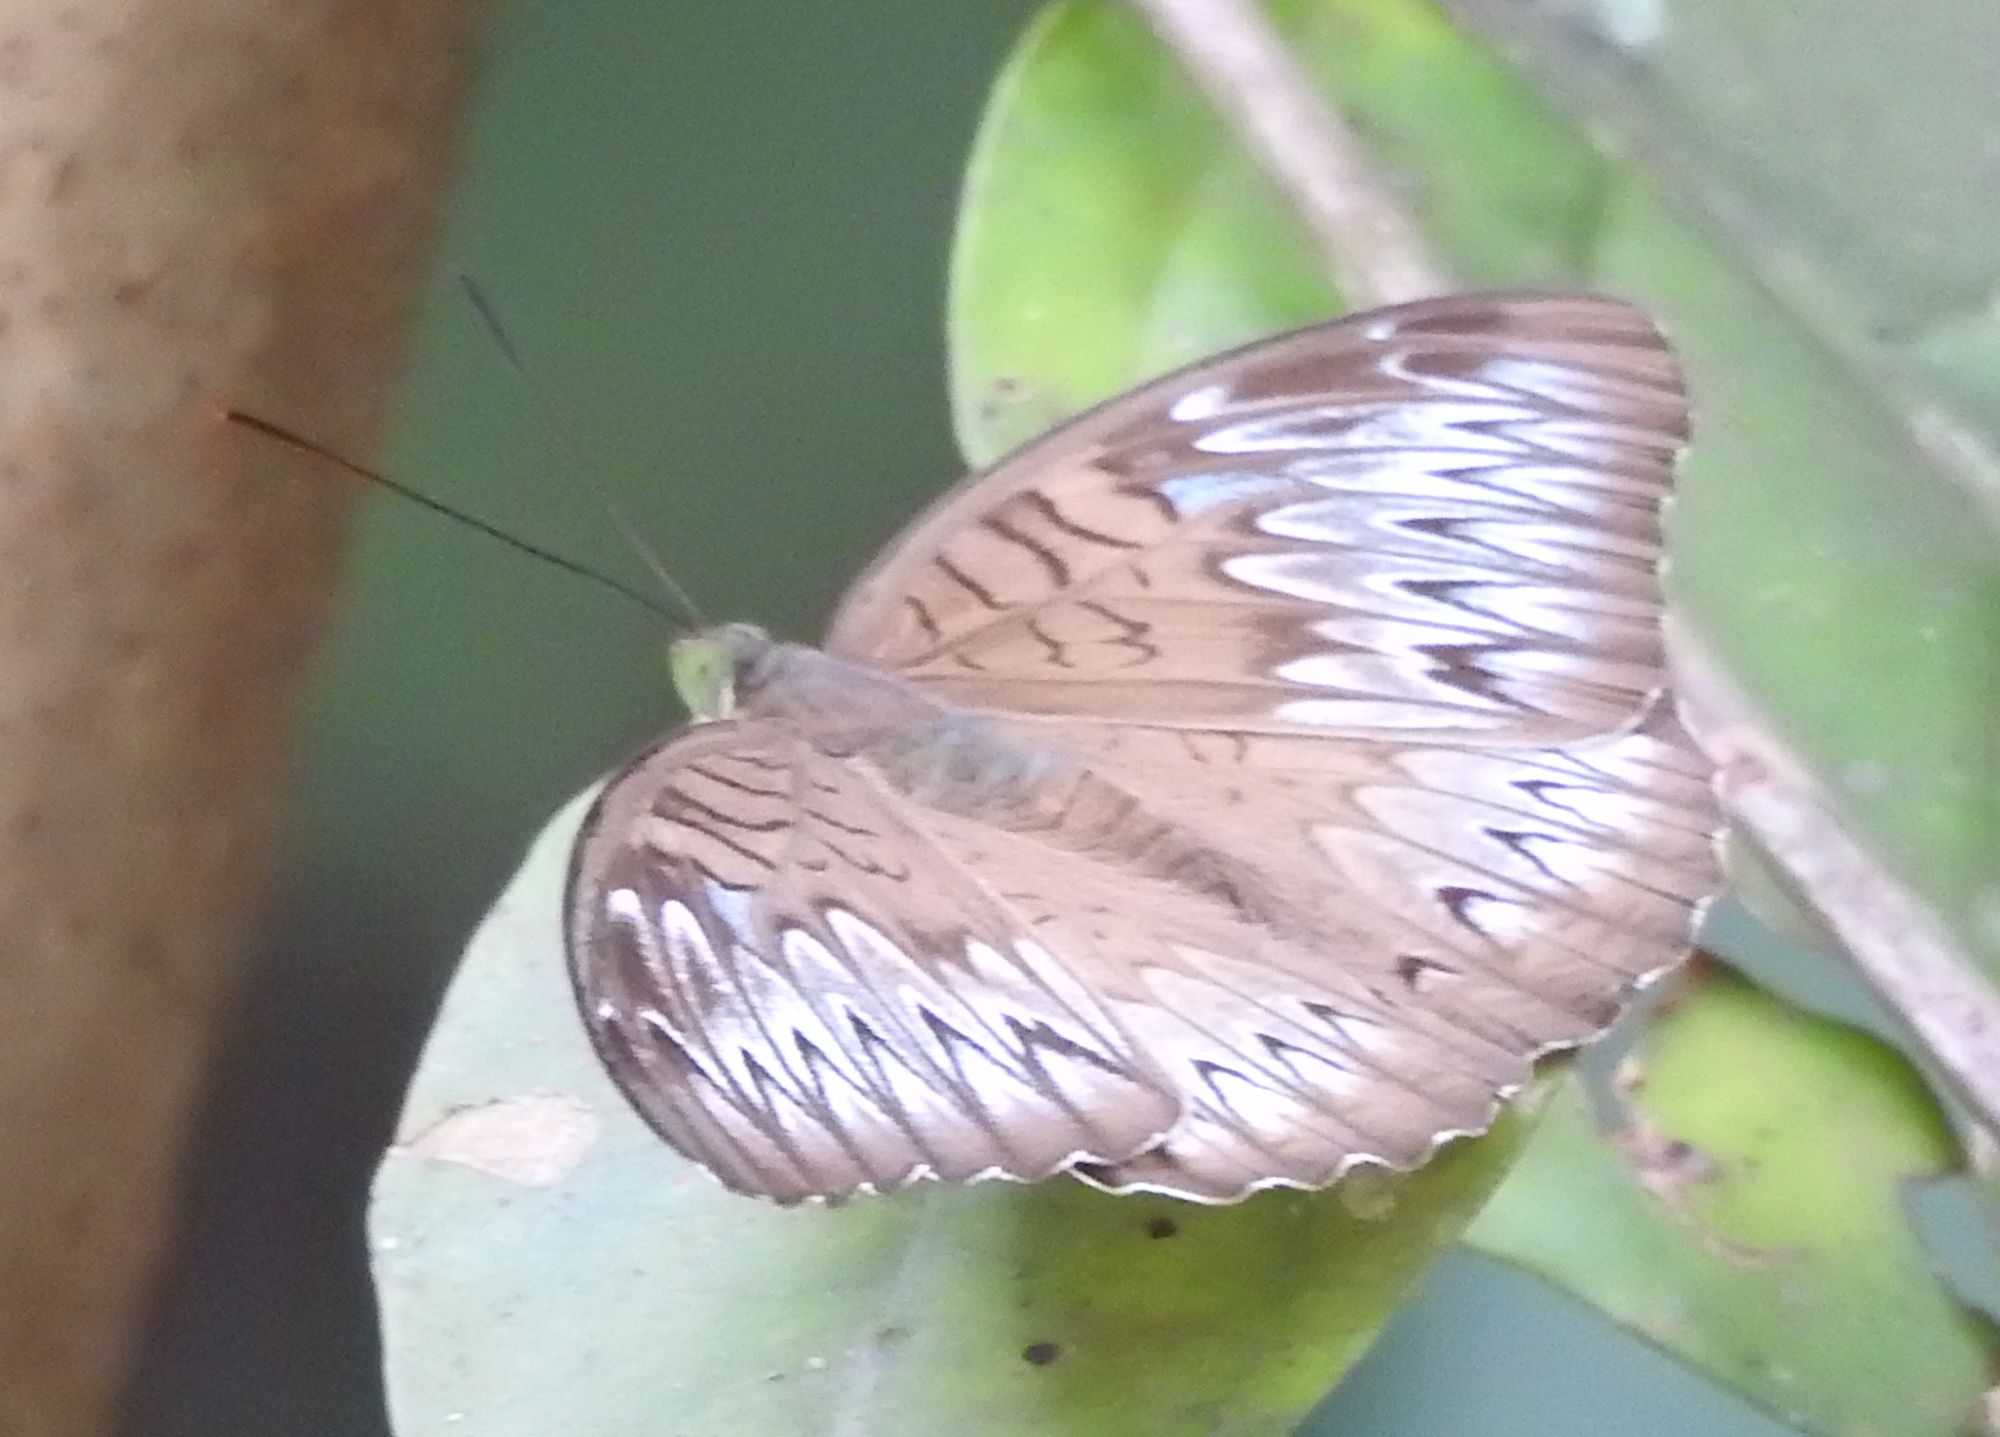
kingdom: Animalia
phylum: Arthropoda
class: Insecta
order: Lepidoptera
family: Nymphalidae
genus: Tanaecia
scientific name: Tanaecia pelea
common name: Malay viscount
